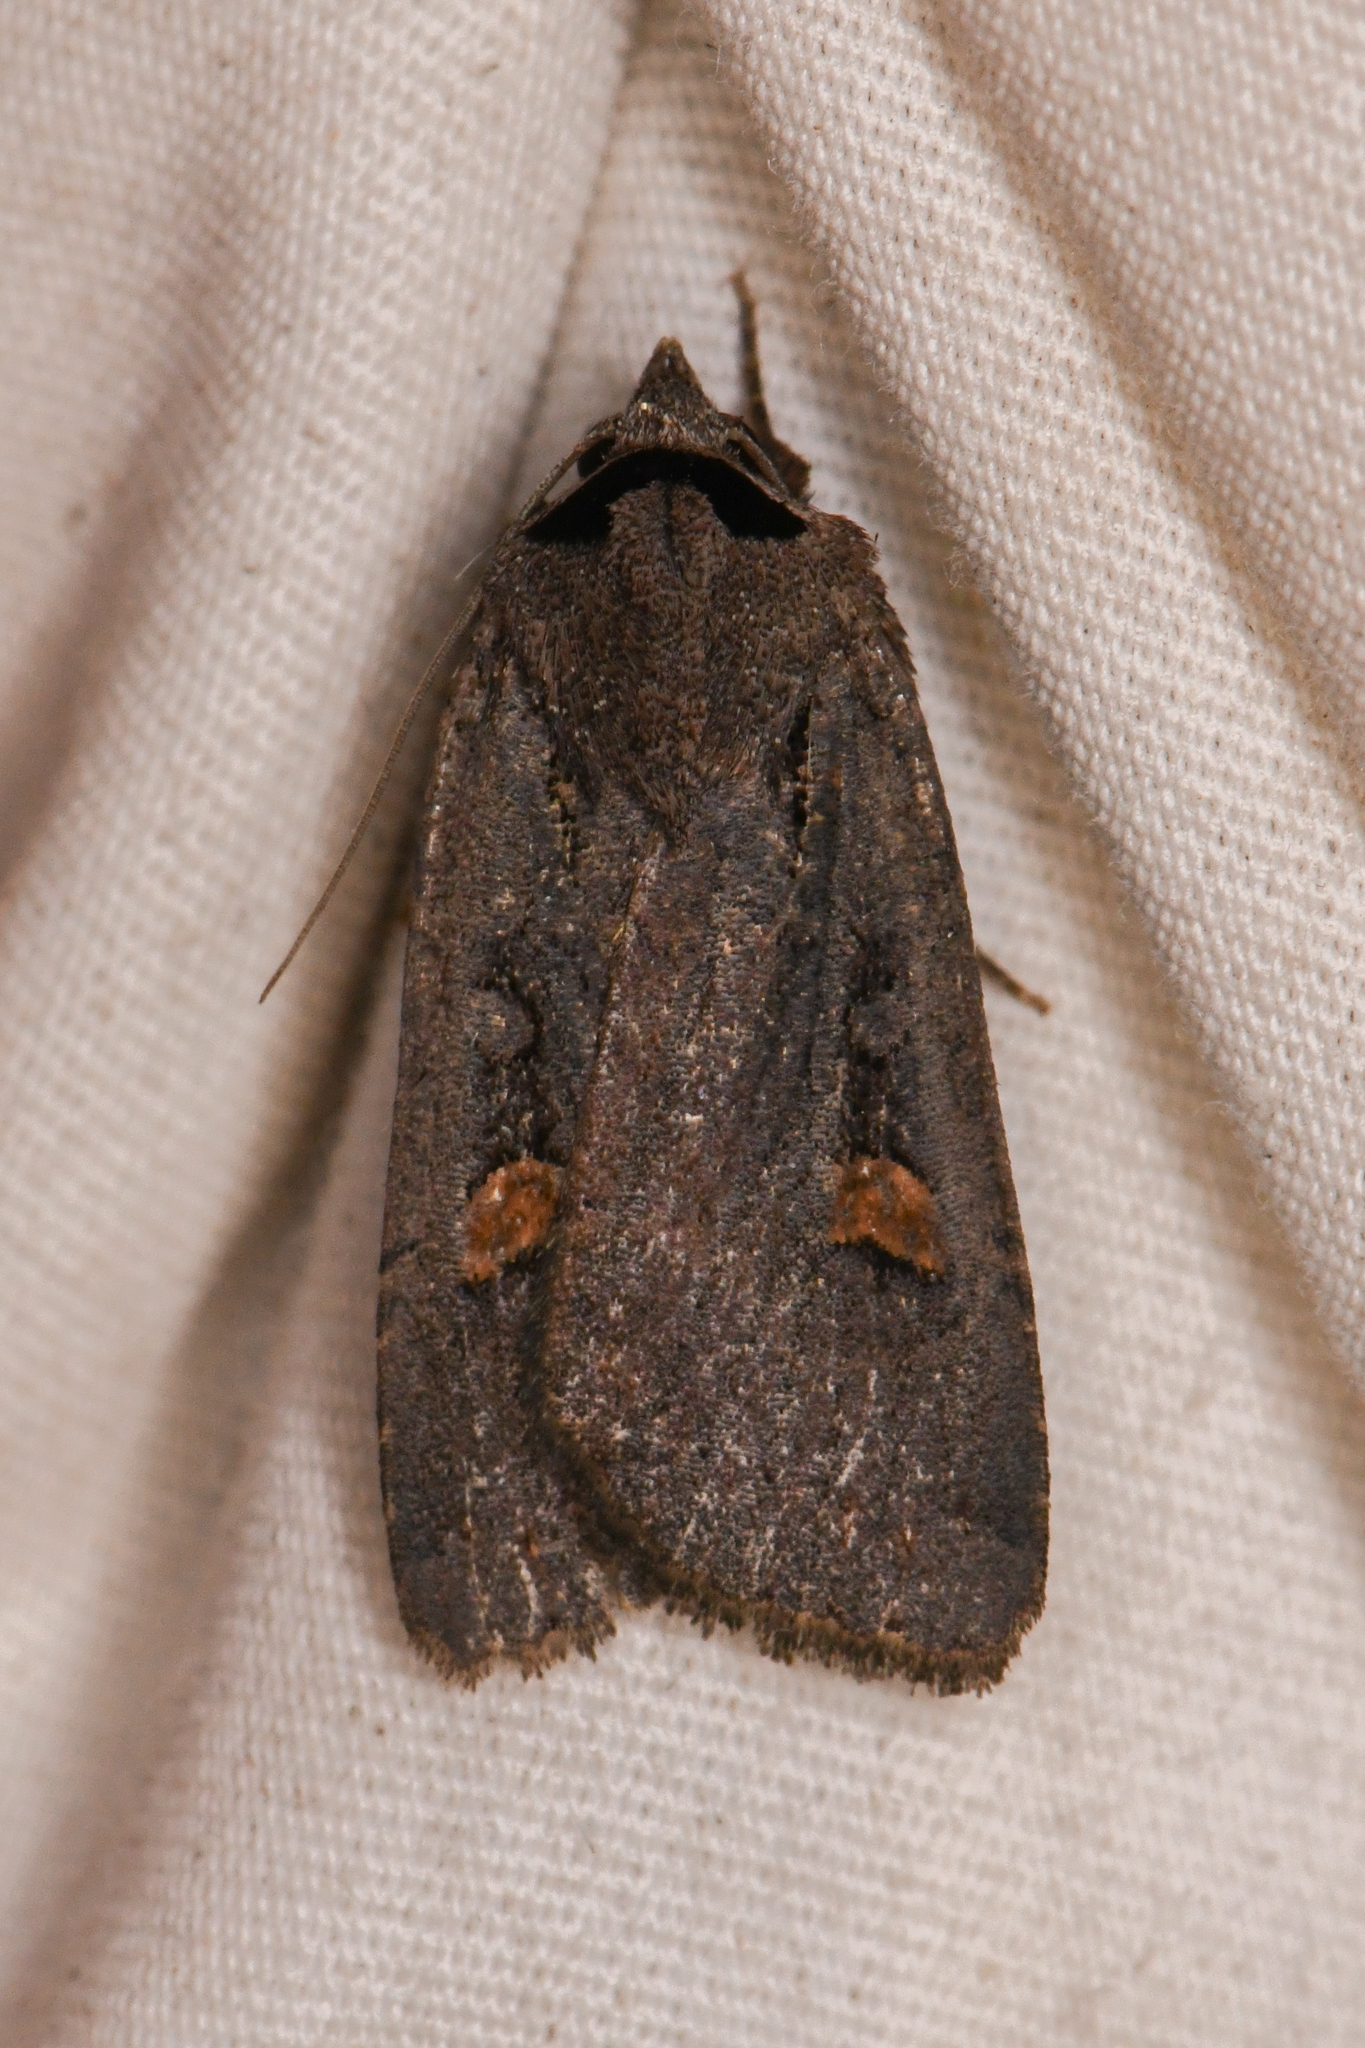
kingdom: Animalia
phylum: Arthropoda
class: Insecta
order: Lepidoptera
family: Noctuidae
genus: Adelphagrotis
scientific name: Adelphagrotis indeterminata
